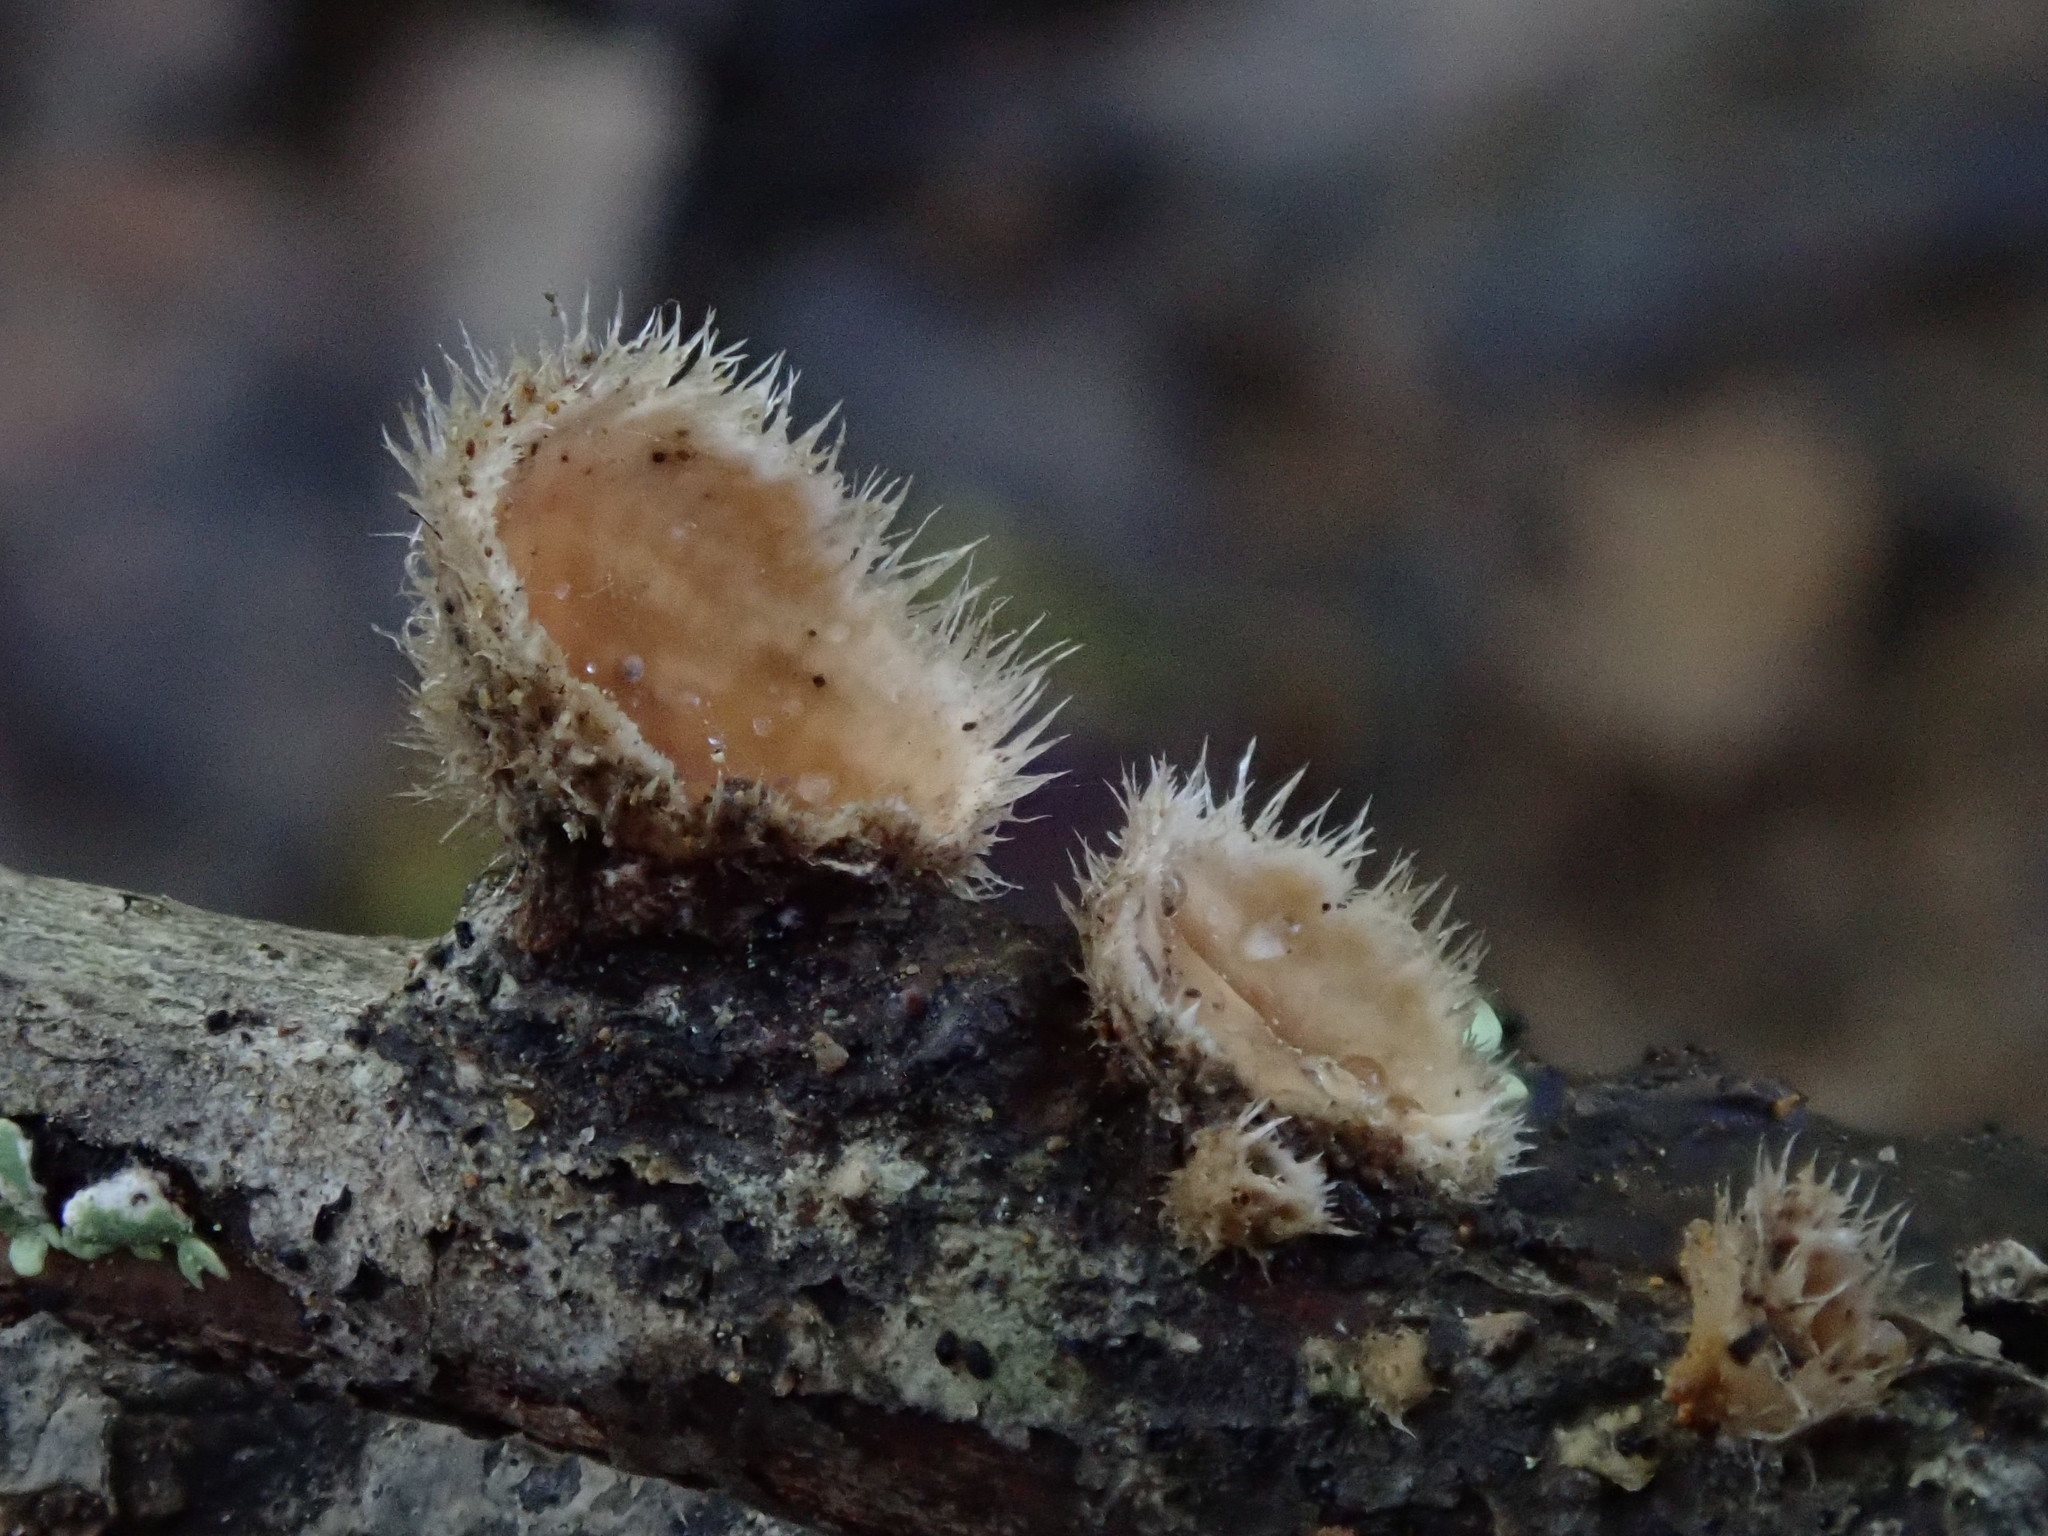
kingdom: Fungi
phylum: Basidiomycota
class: Agaricomycetes
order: Russulales
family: Stereaceae
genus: Stereum
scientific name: Stereum ochraceoflavum
